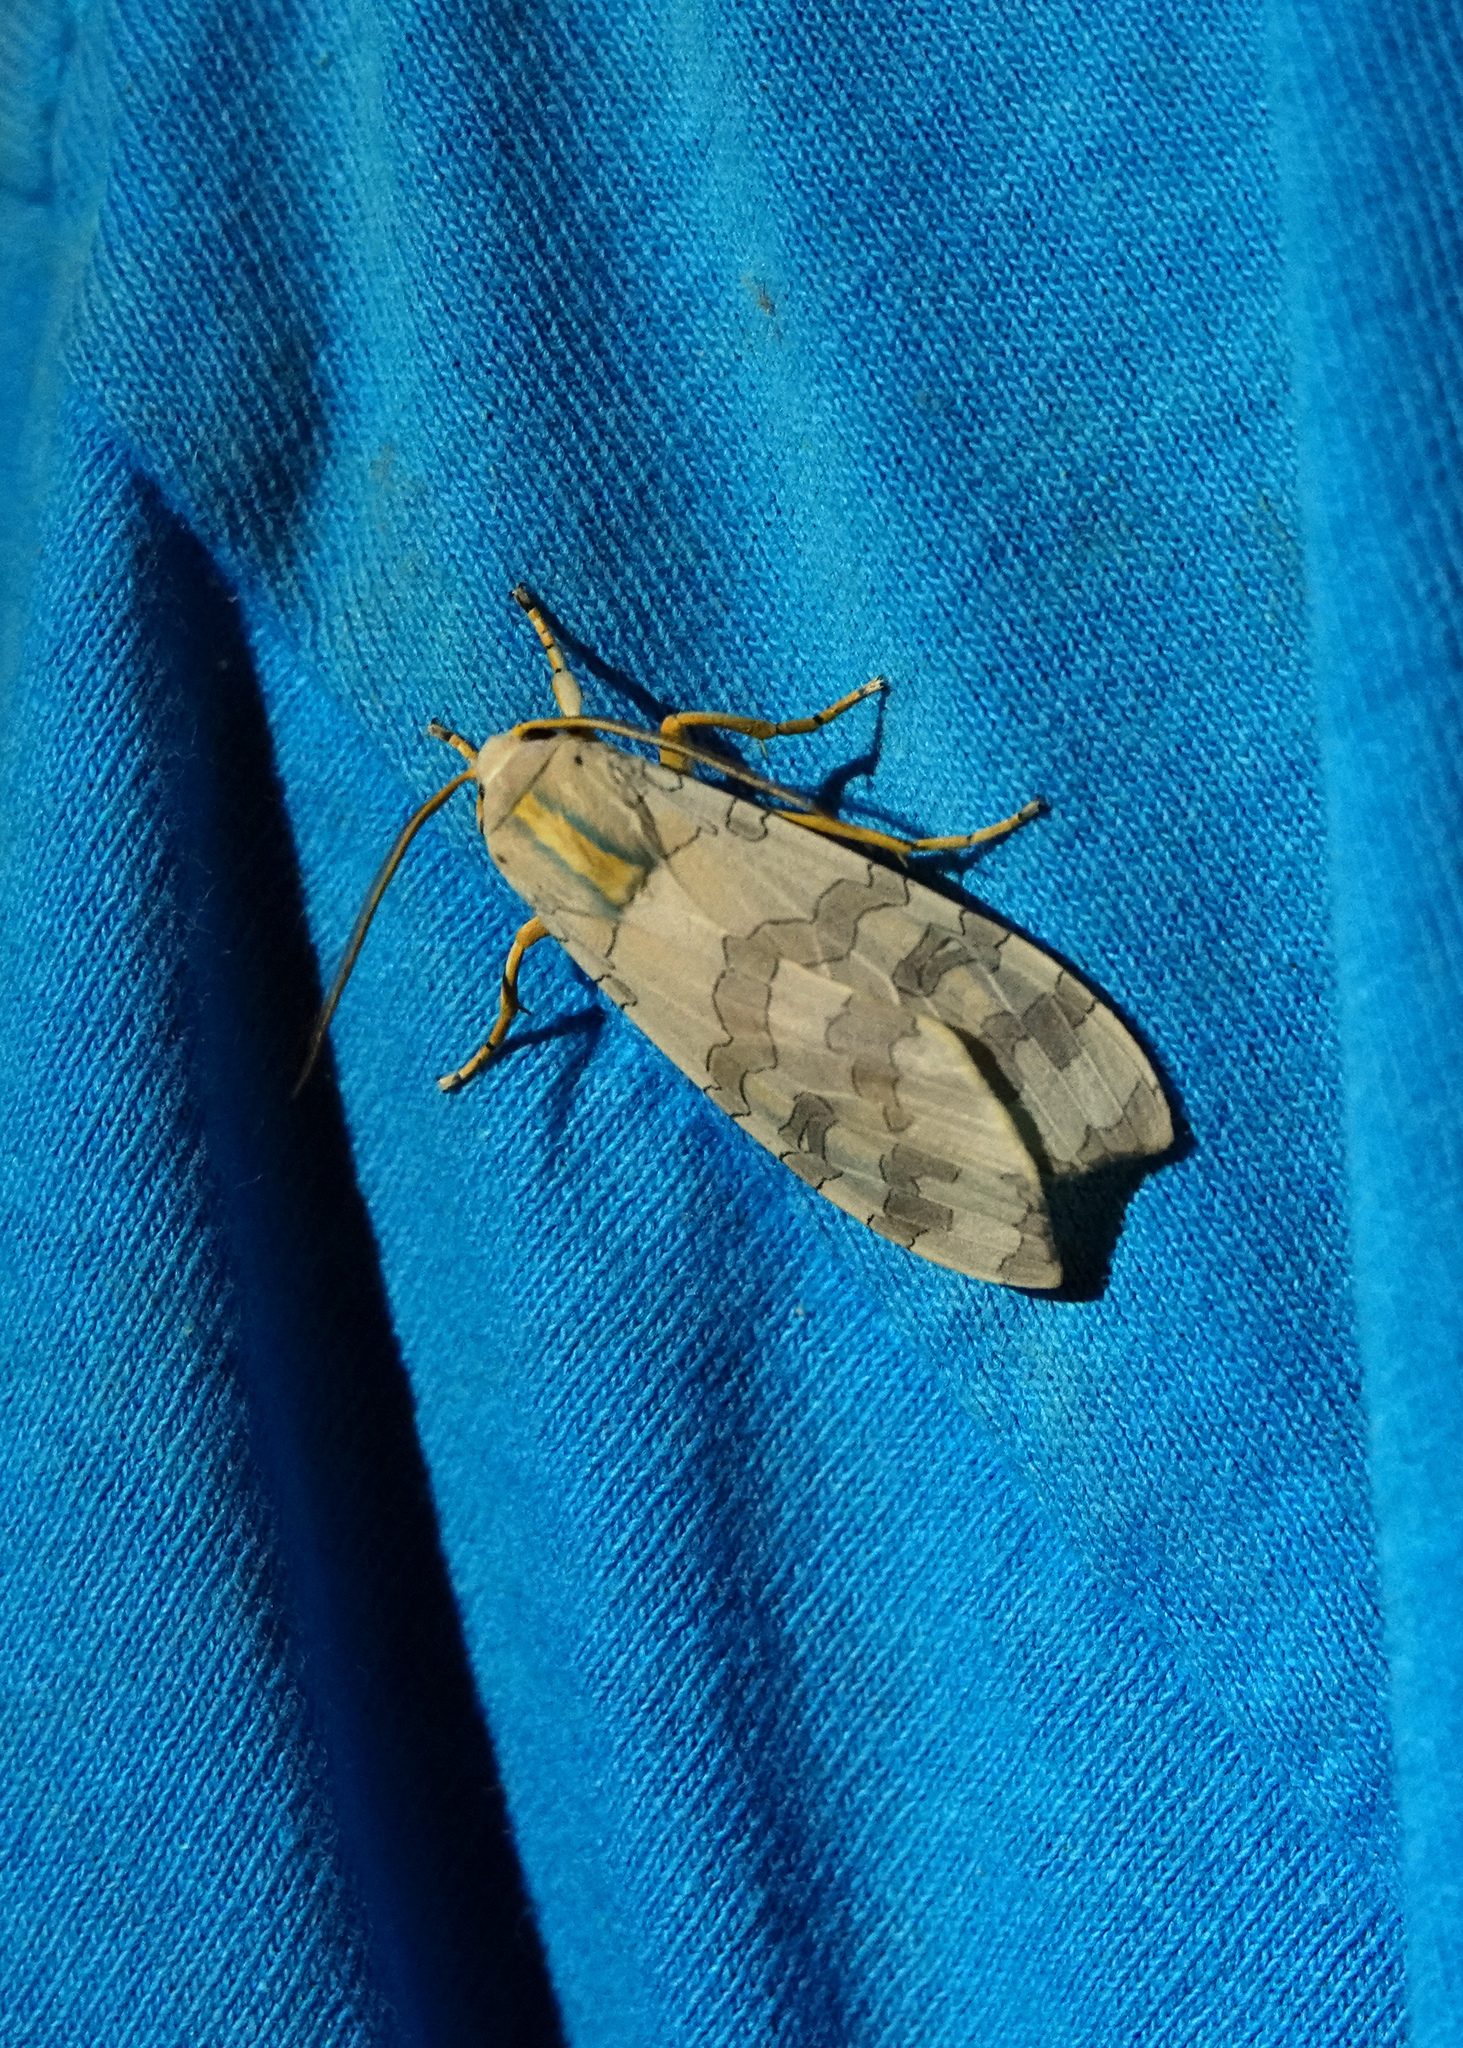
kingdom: Animalia
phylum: Arthropoda
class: Insecta
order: Lepidoptera
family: Erebidae
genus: Halysidota
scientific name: Halysidota
